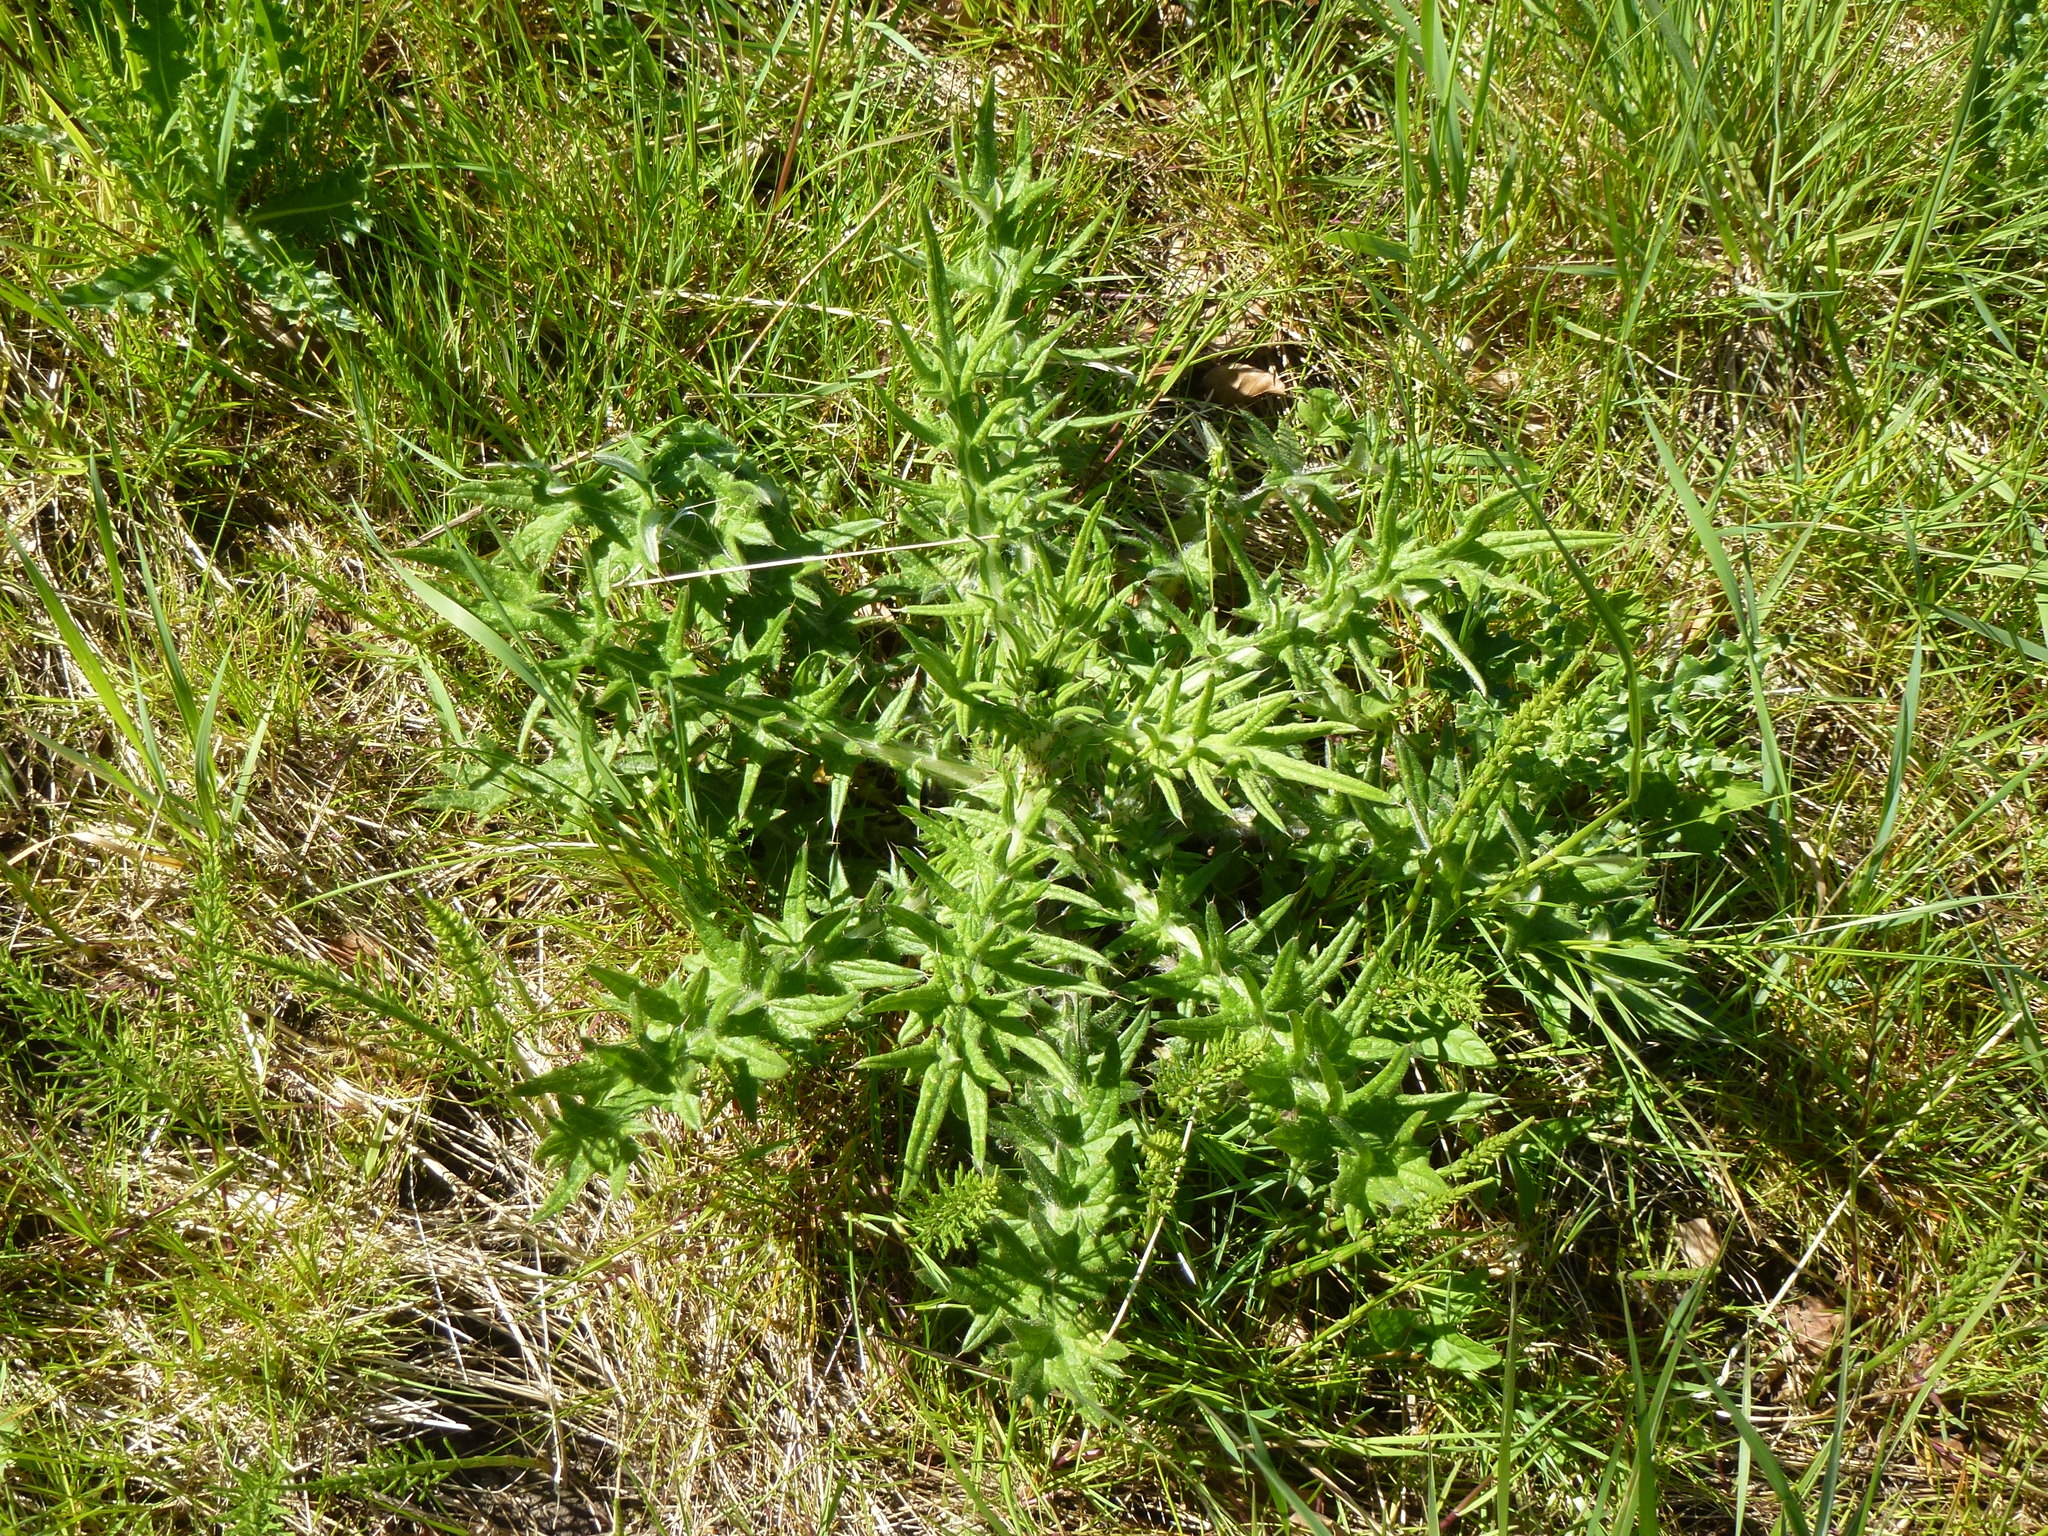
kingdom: Plantae
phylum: Tracheophyta
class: Magnoliopsida
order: Asterales
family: Asteraceae
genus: Cirsium
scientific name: Cirsium vulgare
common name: Bull thistle
